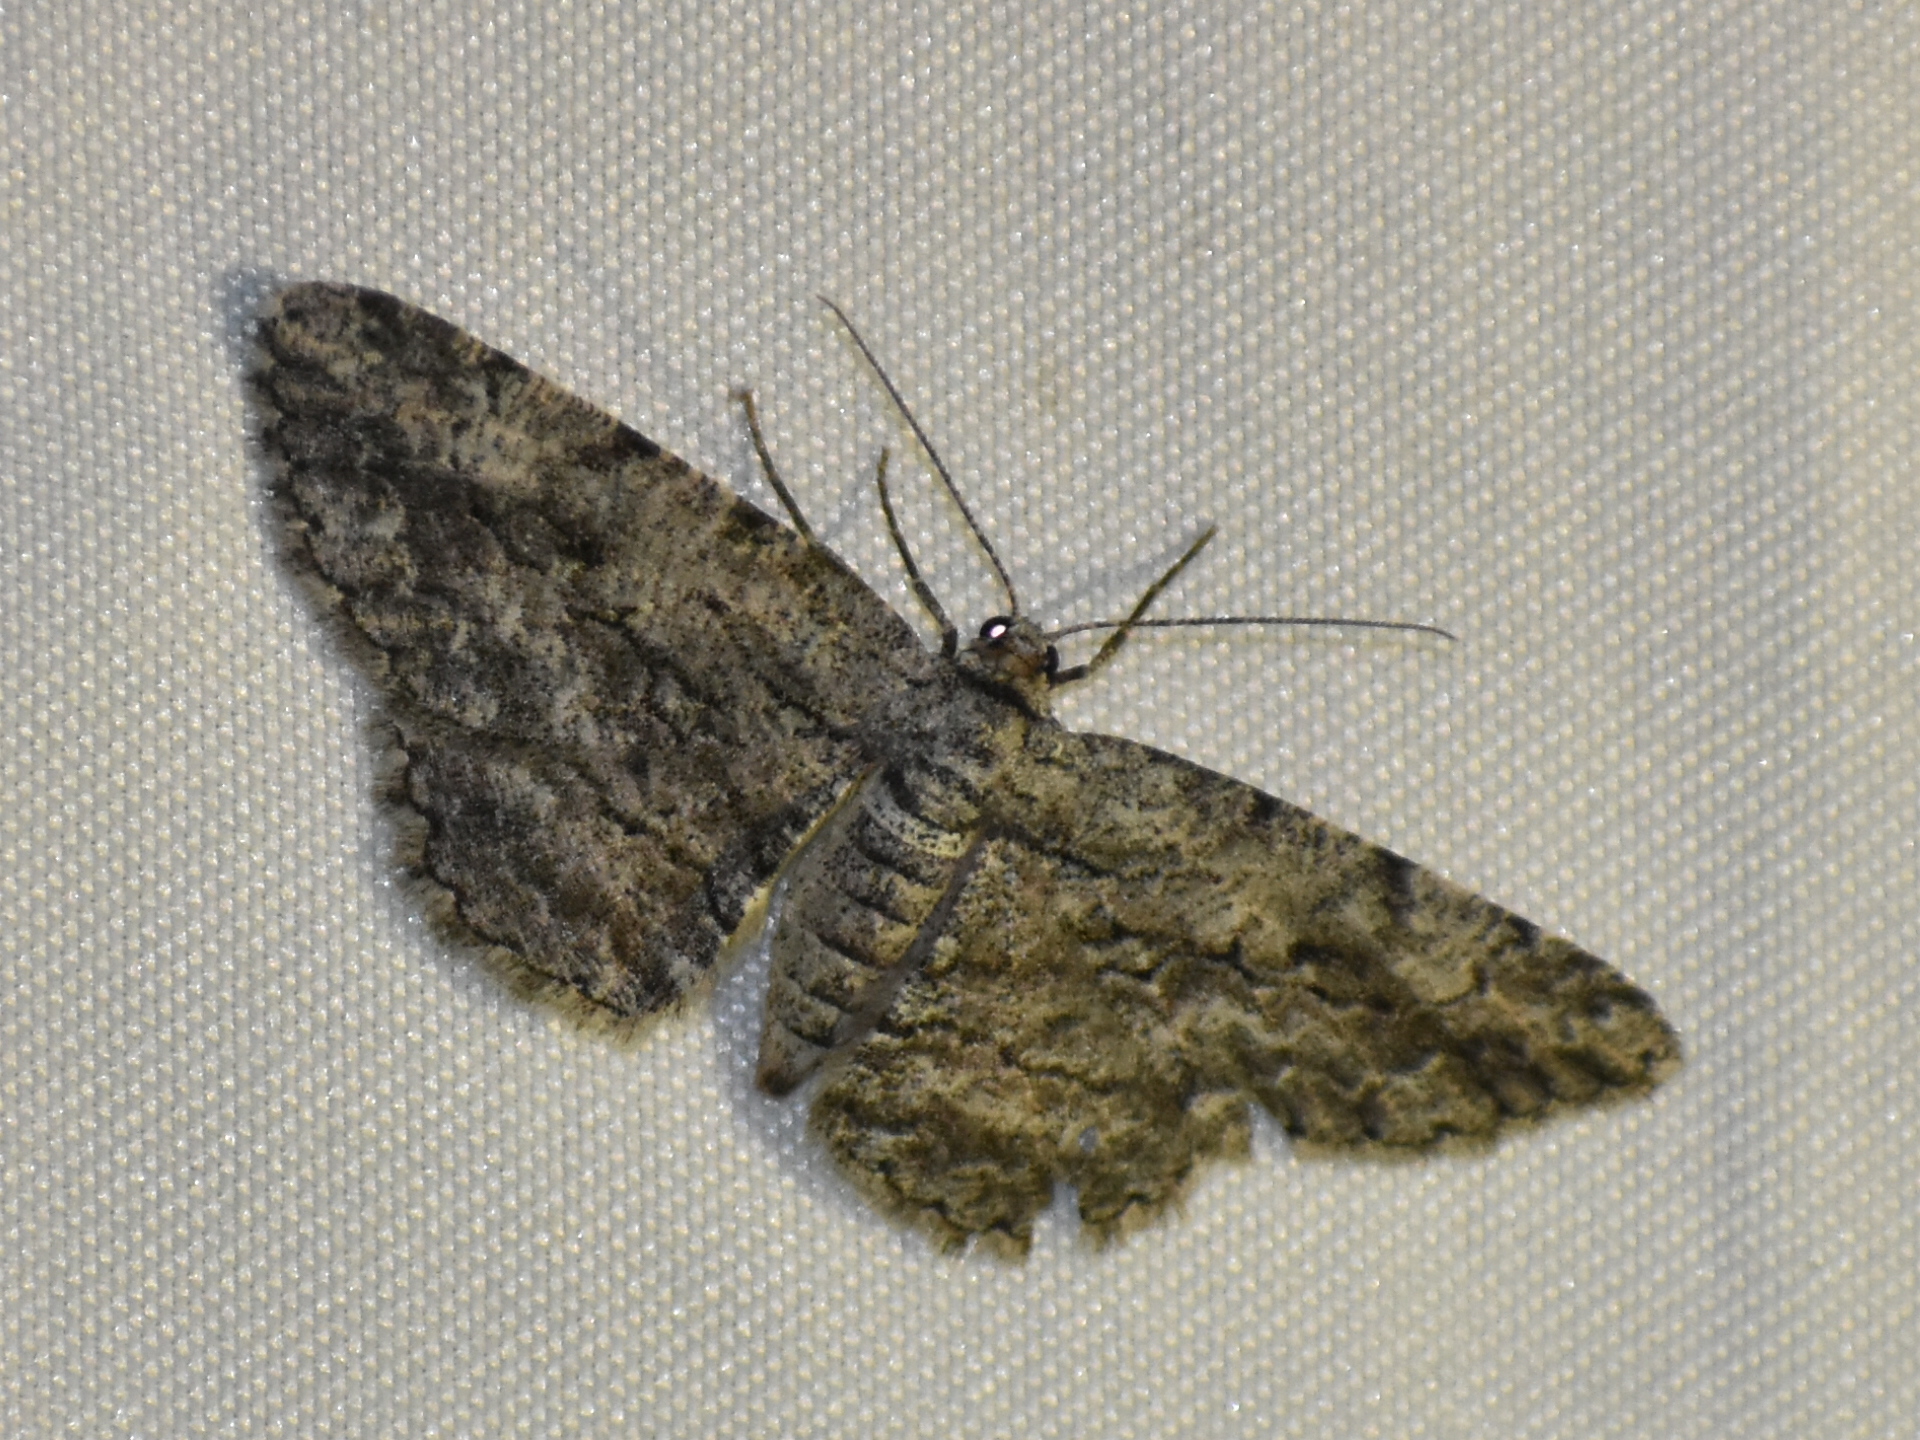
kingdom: Animalia
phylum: Arthropoda
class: Insecta
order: Lepidoptera
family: Geometridae
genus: Anavitrinella
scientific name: Anavitrinella pampinaria
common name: Common gray
